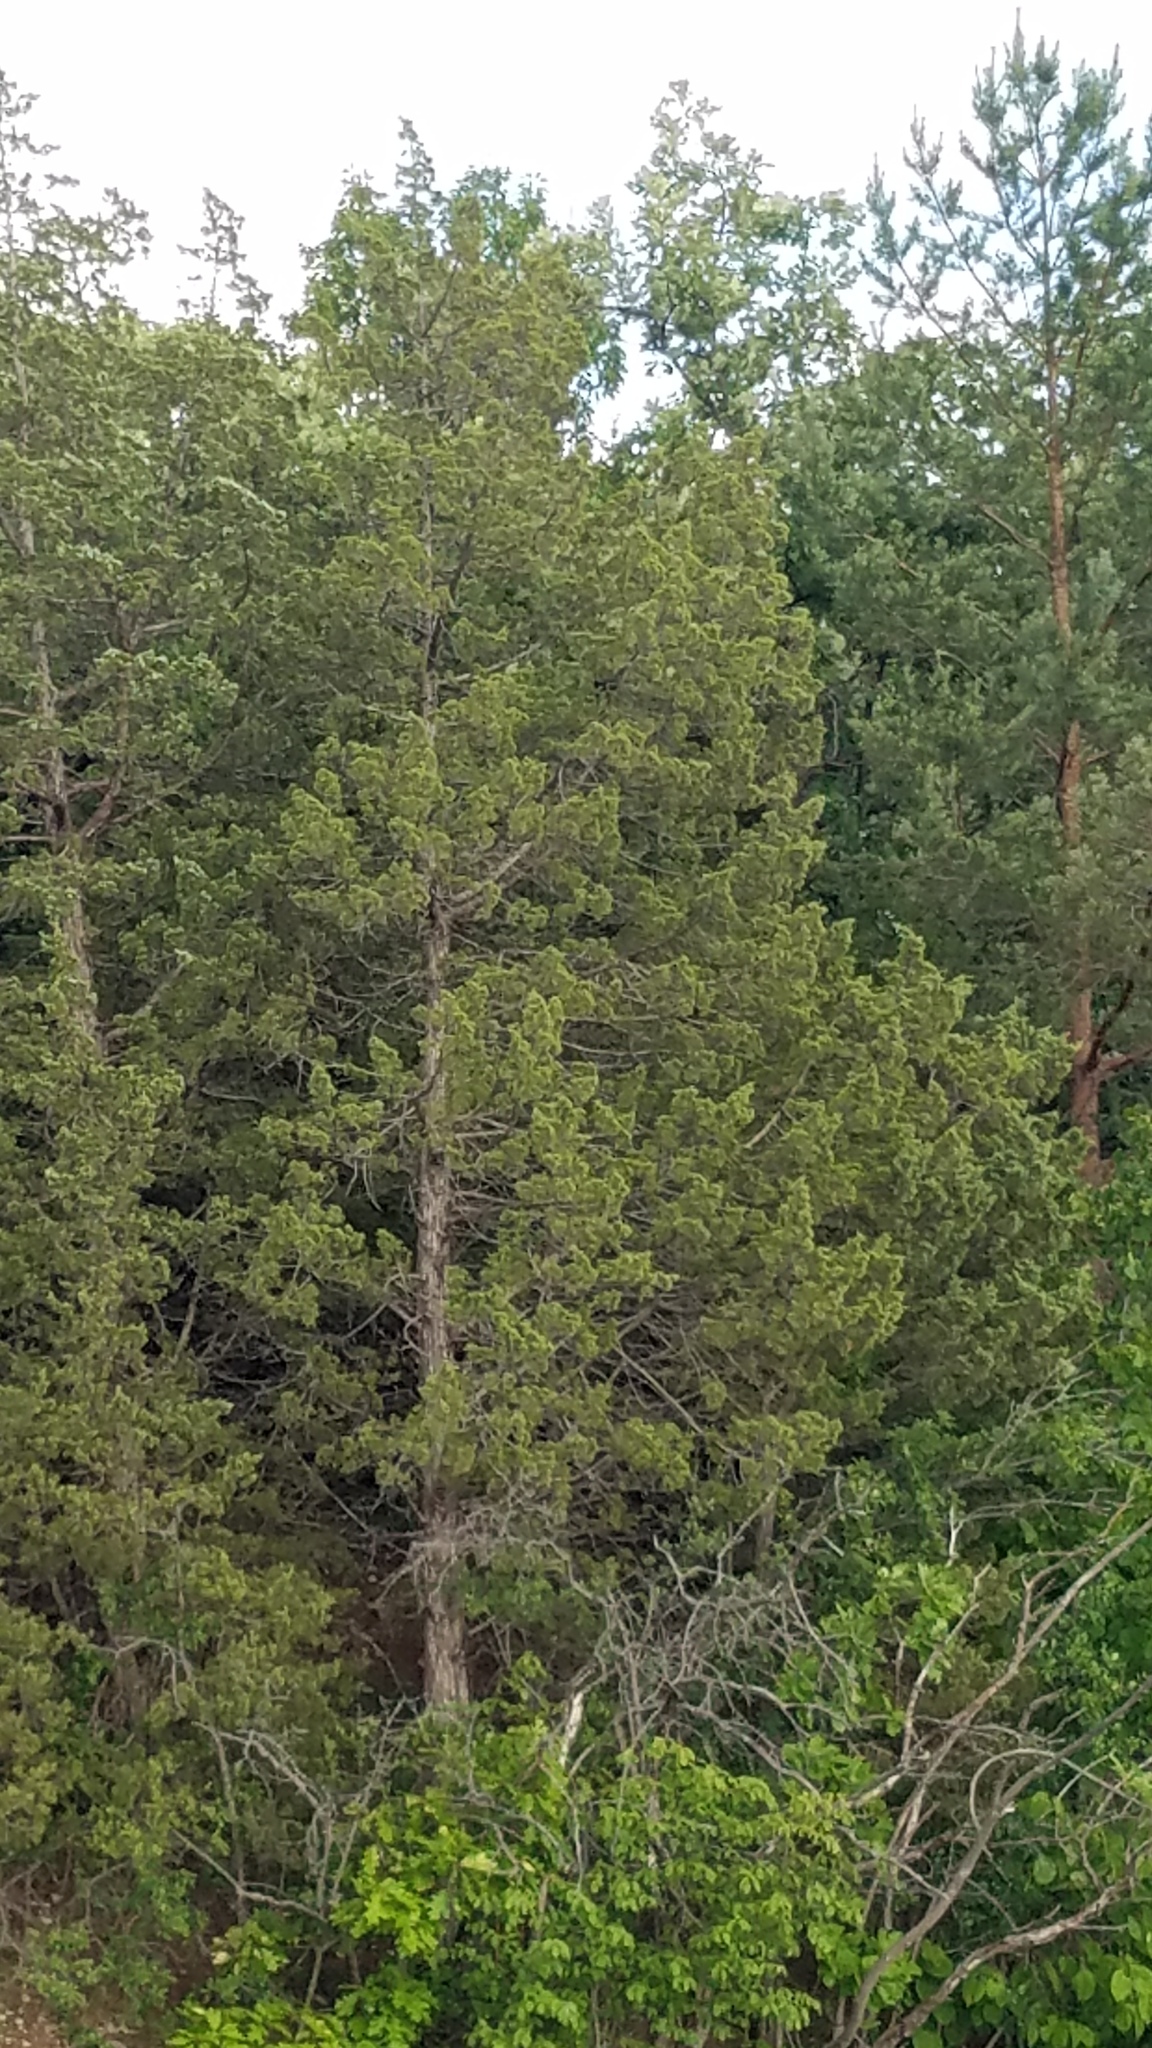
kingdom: Plantae
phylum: Tracheophyta
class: Pinopsida
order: Pinales
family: Pinaceae
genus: Pinus
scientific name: Pinus sylvestris
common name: Scots pine
